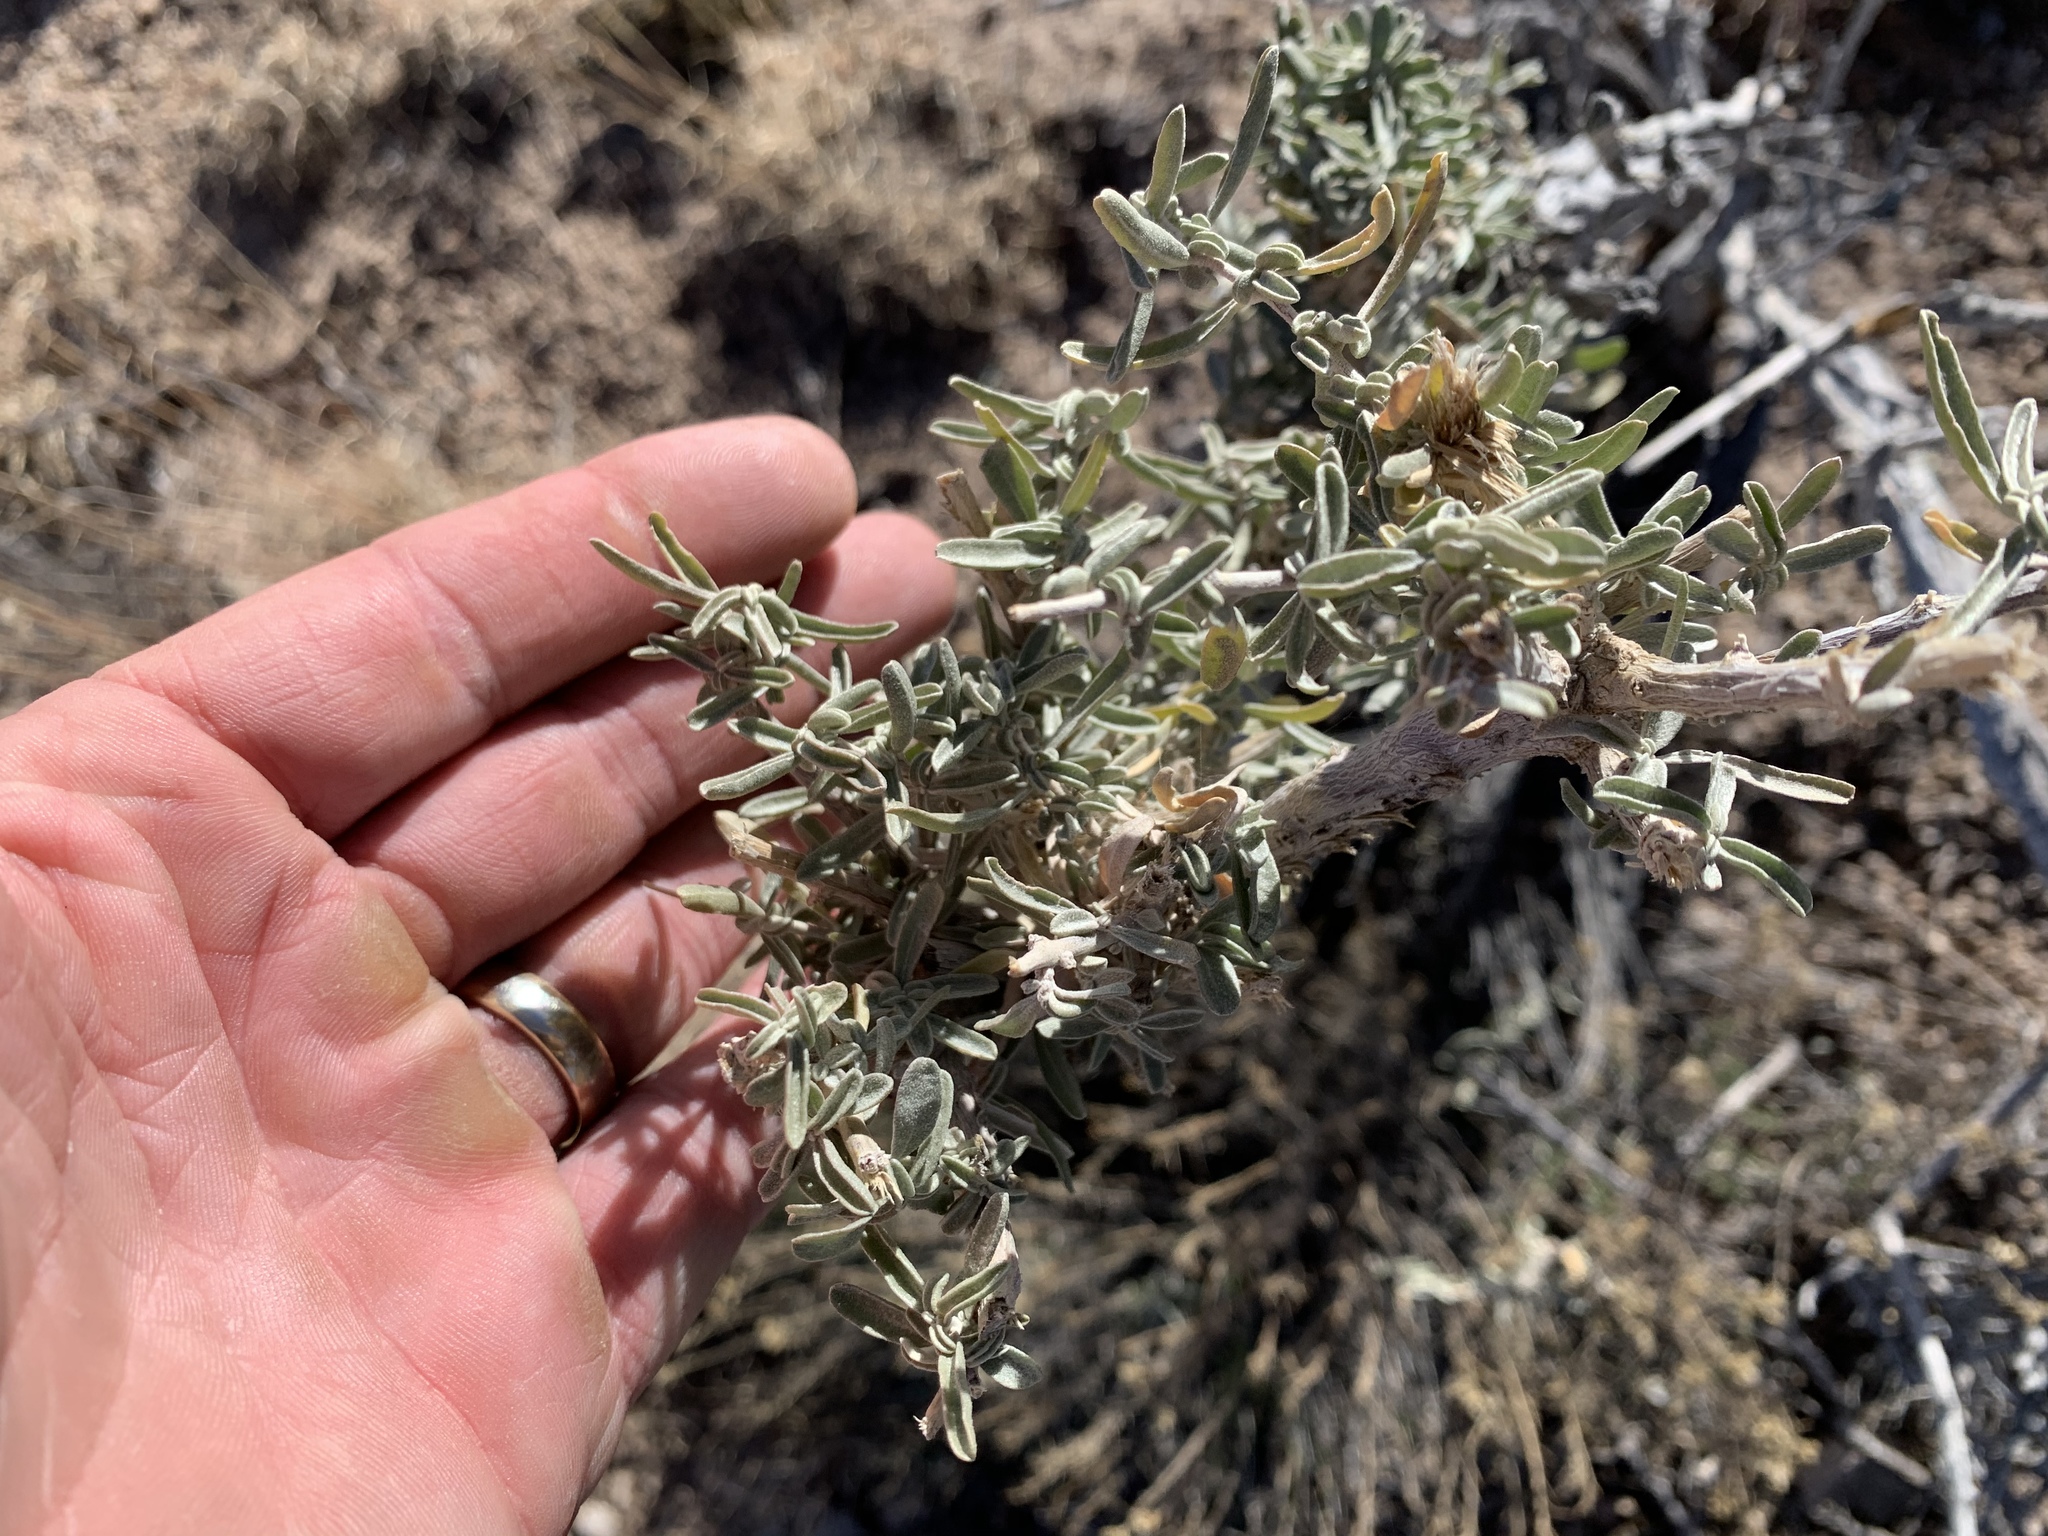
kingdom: Plantae
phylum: Tracheophyta
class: Magnoliopsida
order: Caryophyllales
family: Amaranthaceae
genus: Atriplex
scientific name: Atriplex canescens
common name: Four-wing saltbush
